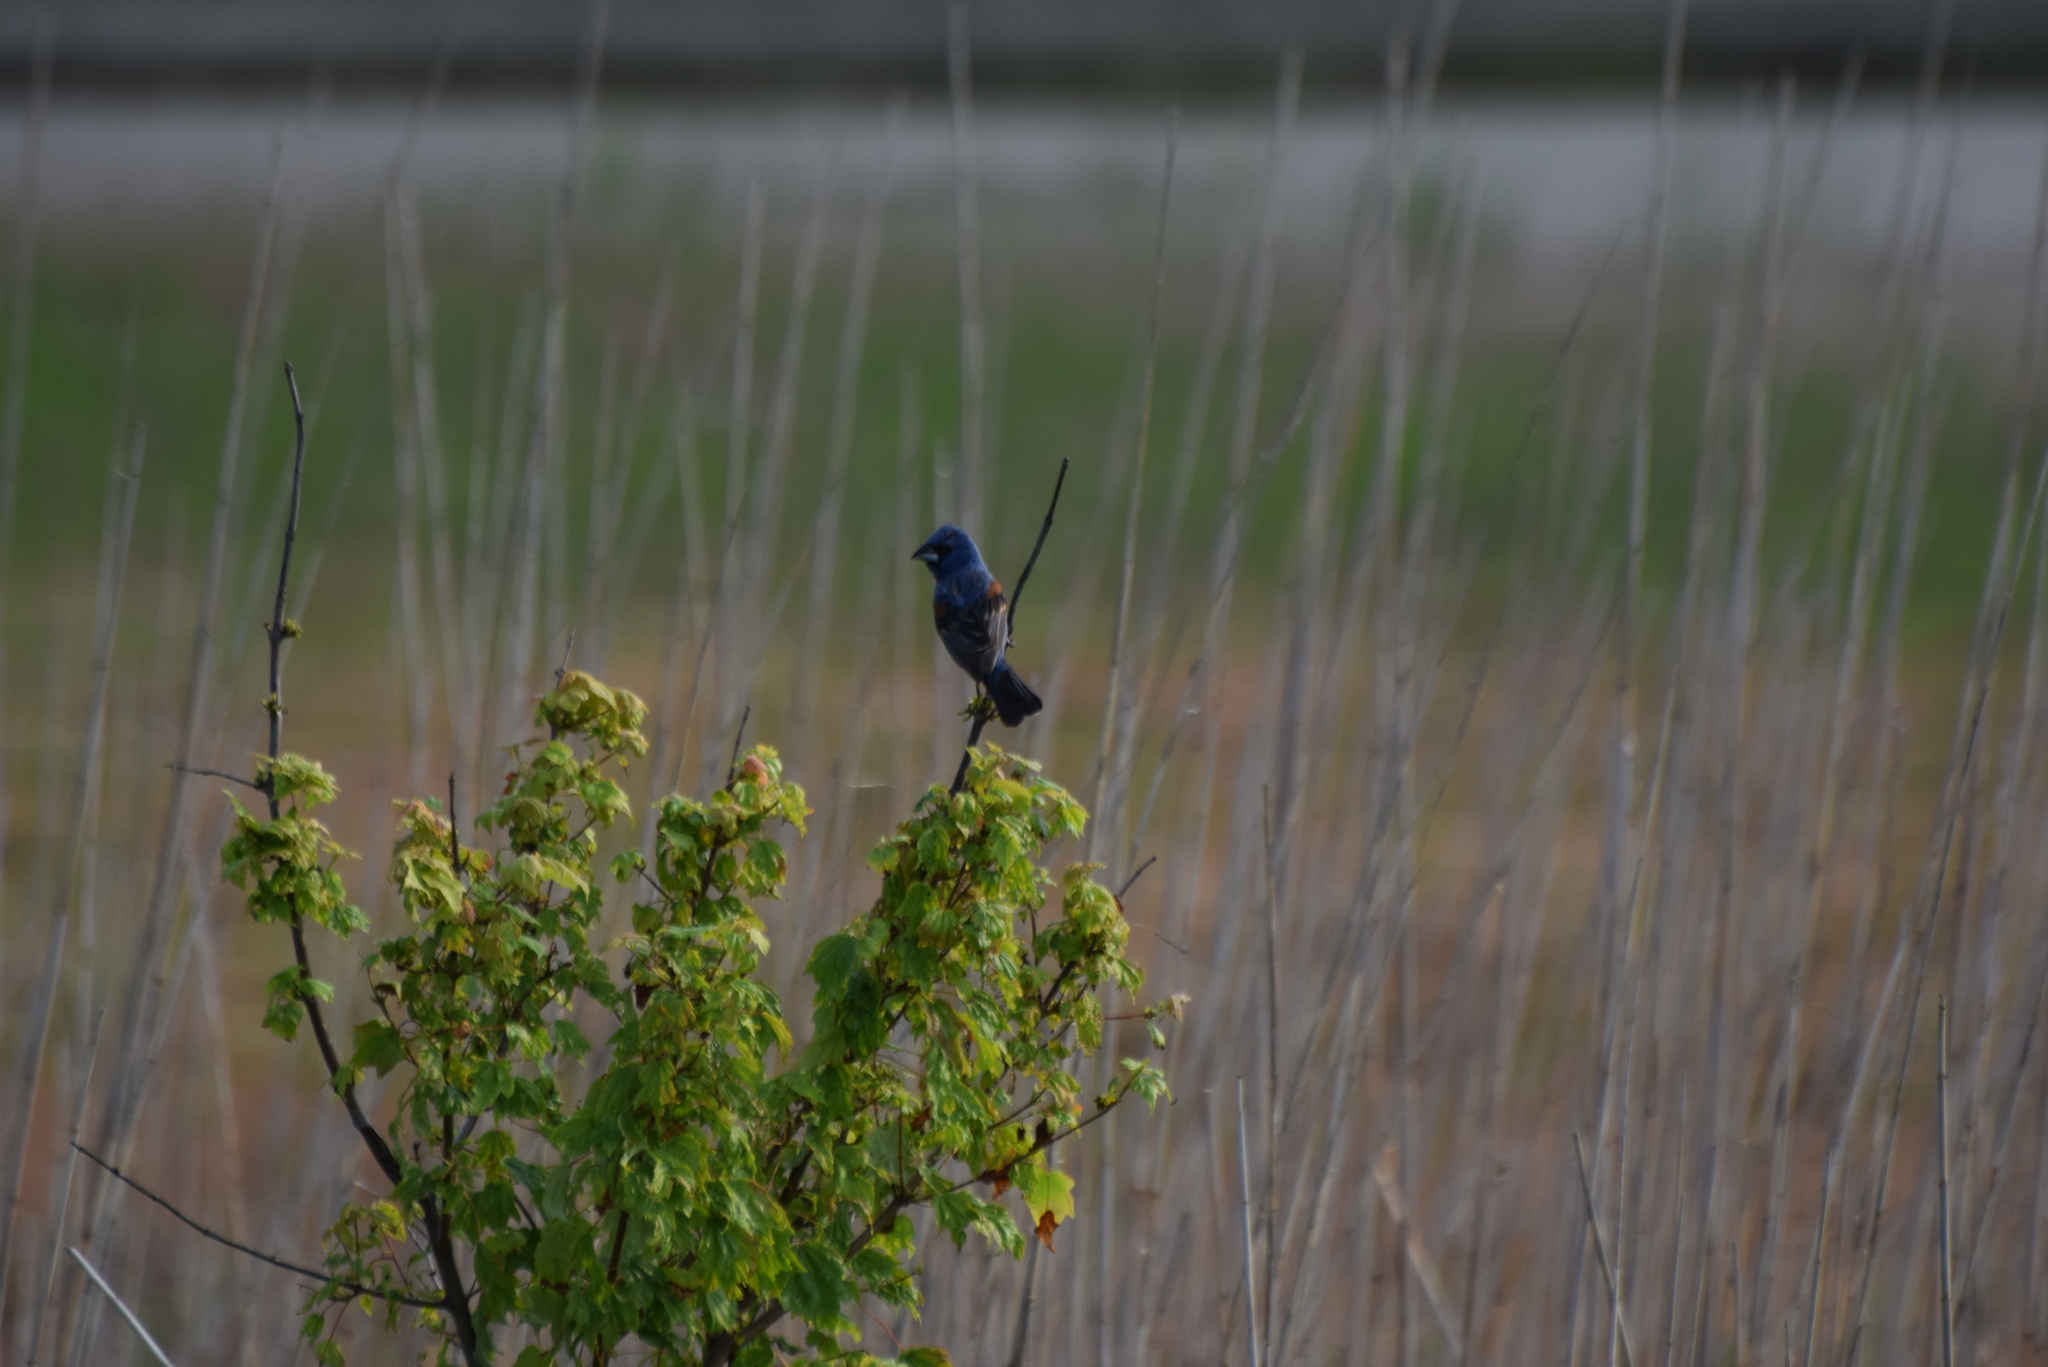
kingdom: Animalia
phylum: Chordata
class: Aves
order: Passeriformes
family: Cardinalidae
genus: Passerina
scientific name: Passerina caerulea
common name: Blue grosbeak
